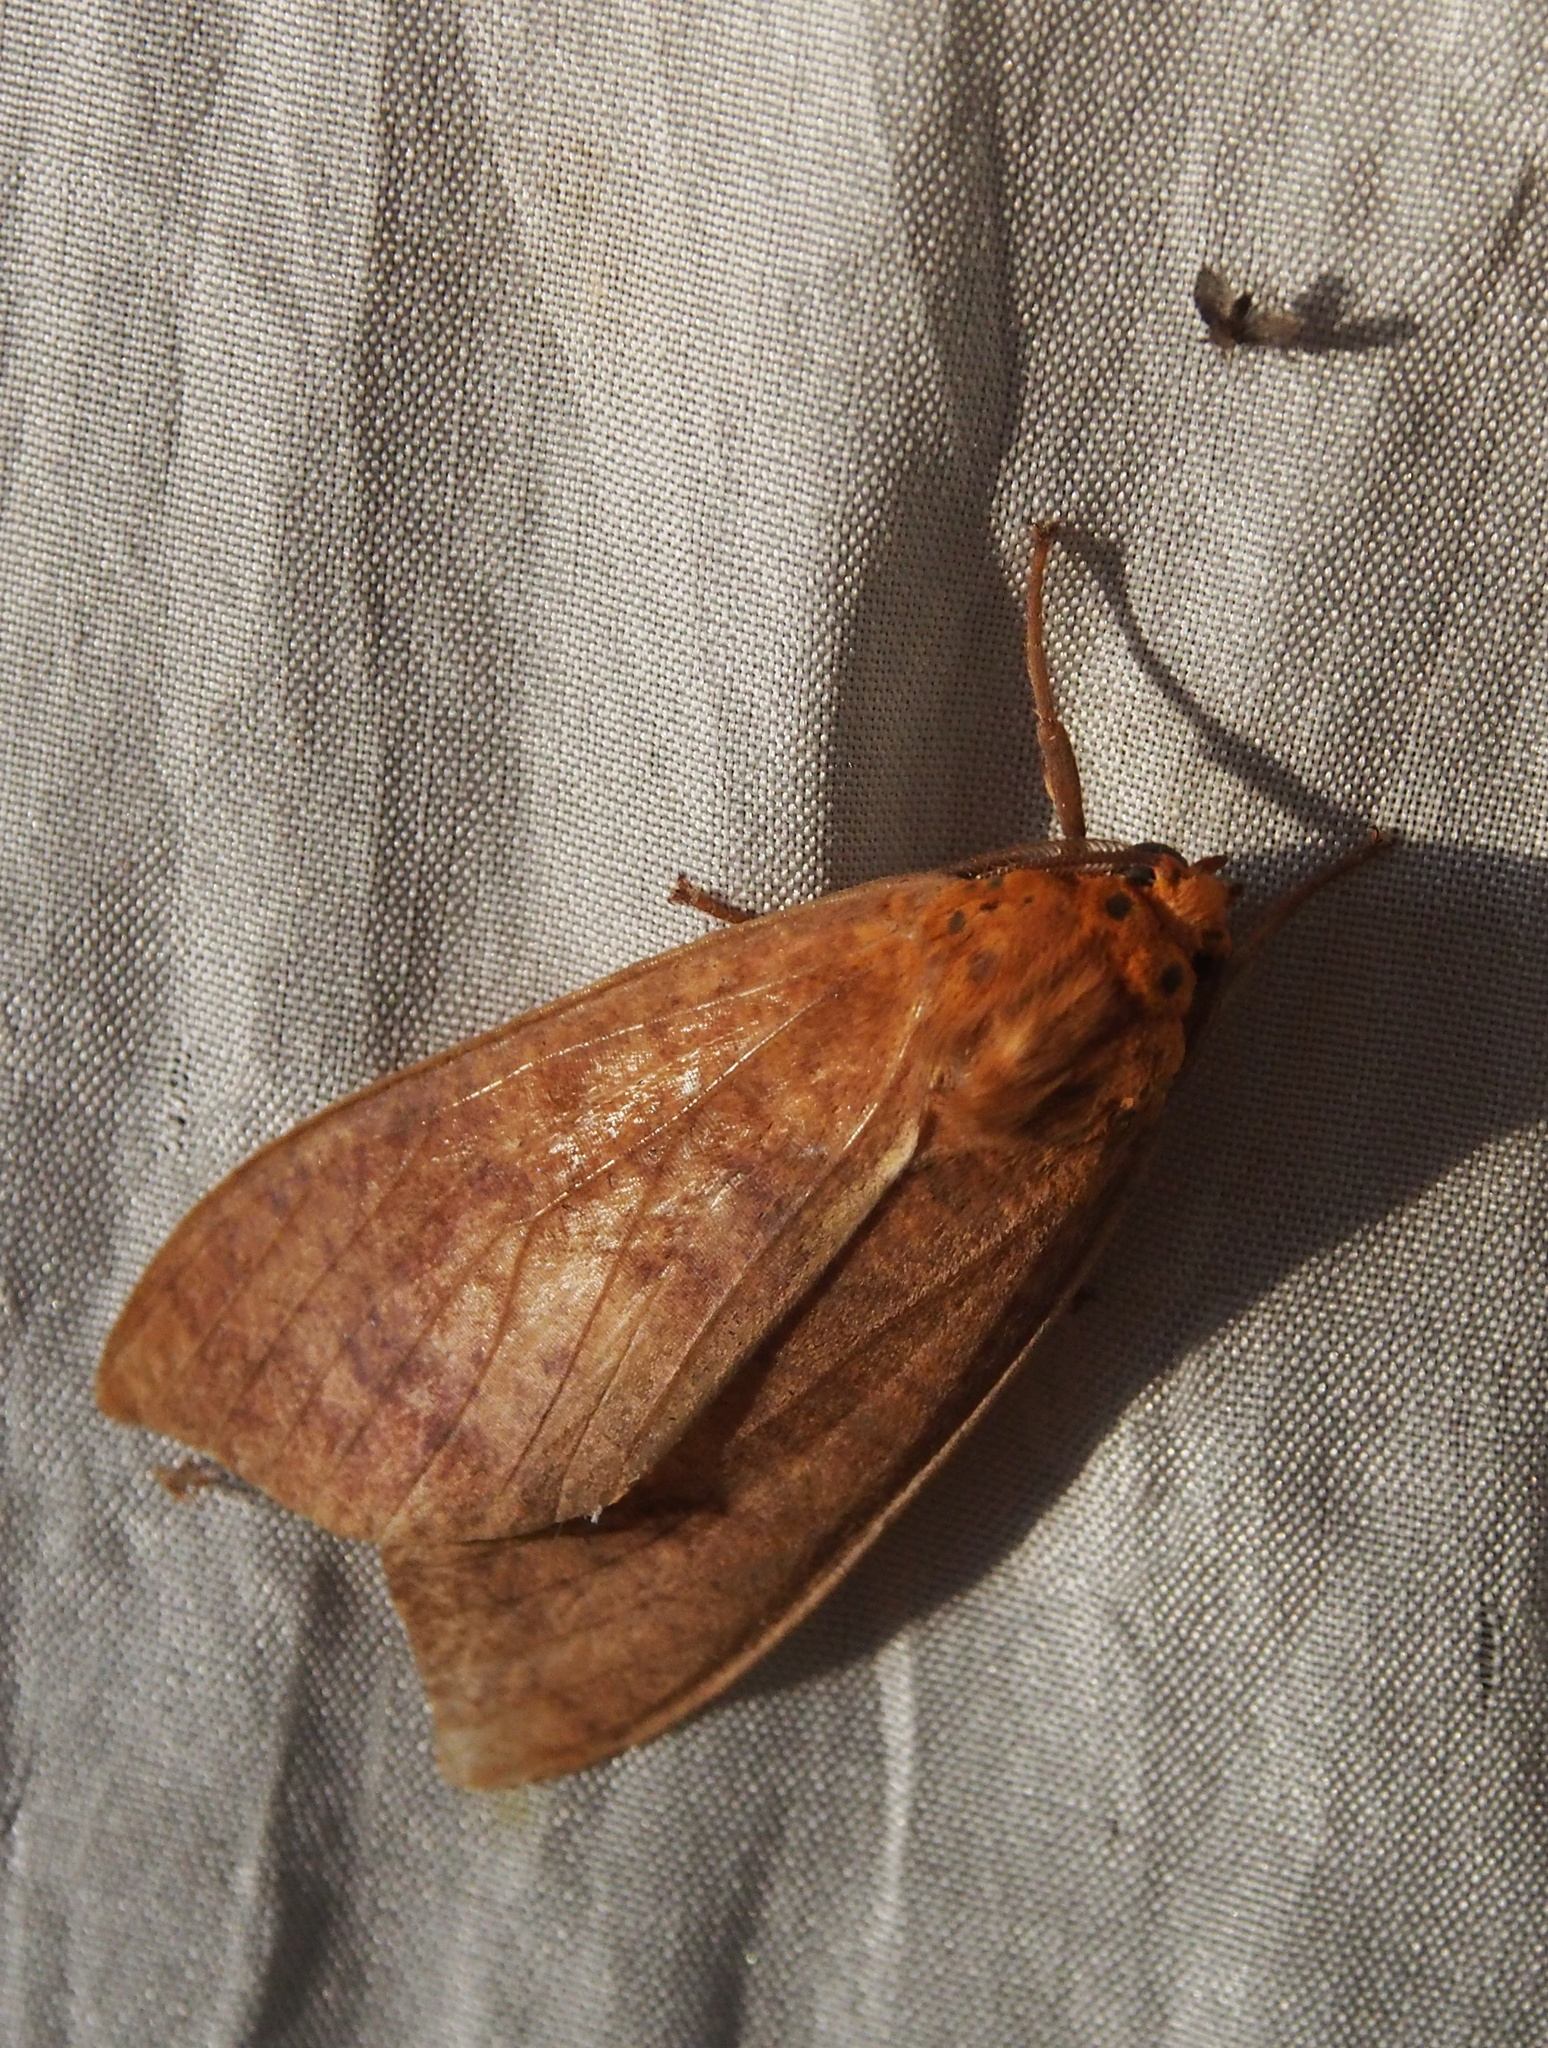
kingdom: Animalia
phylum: Arthropoda
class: Insecta
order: Lepidoptera
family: Erebidae
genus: Ammalo
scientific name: Ammalo helops
